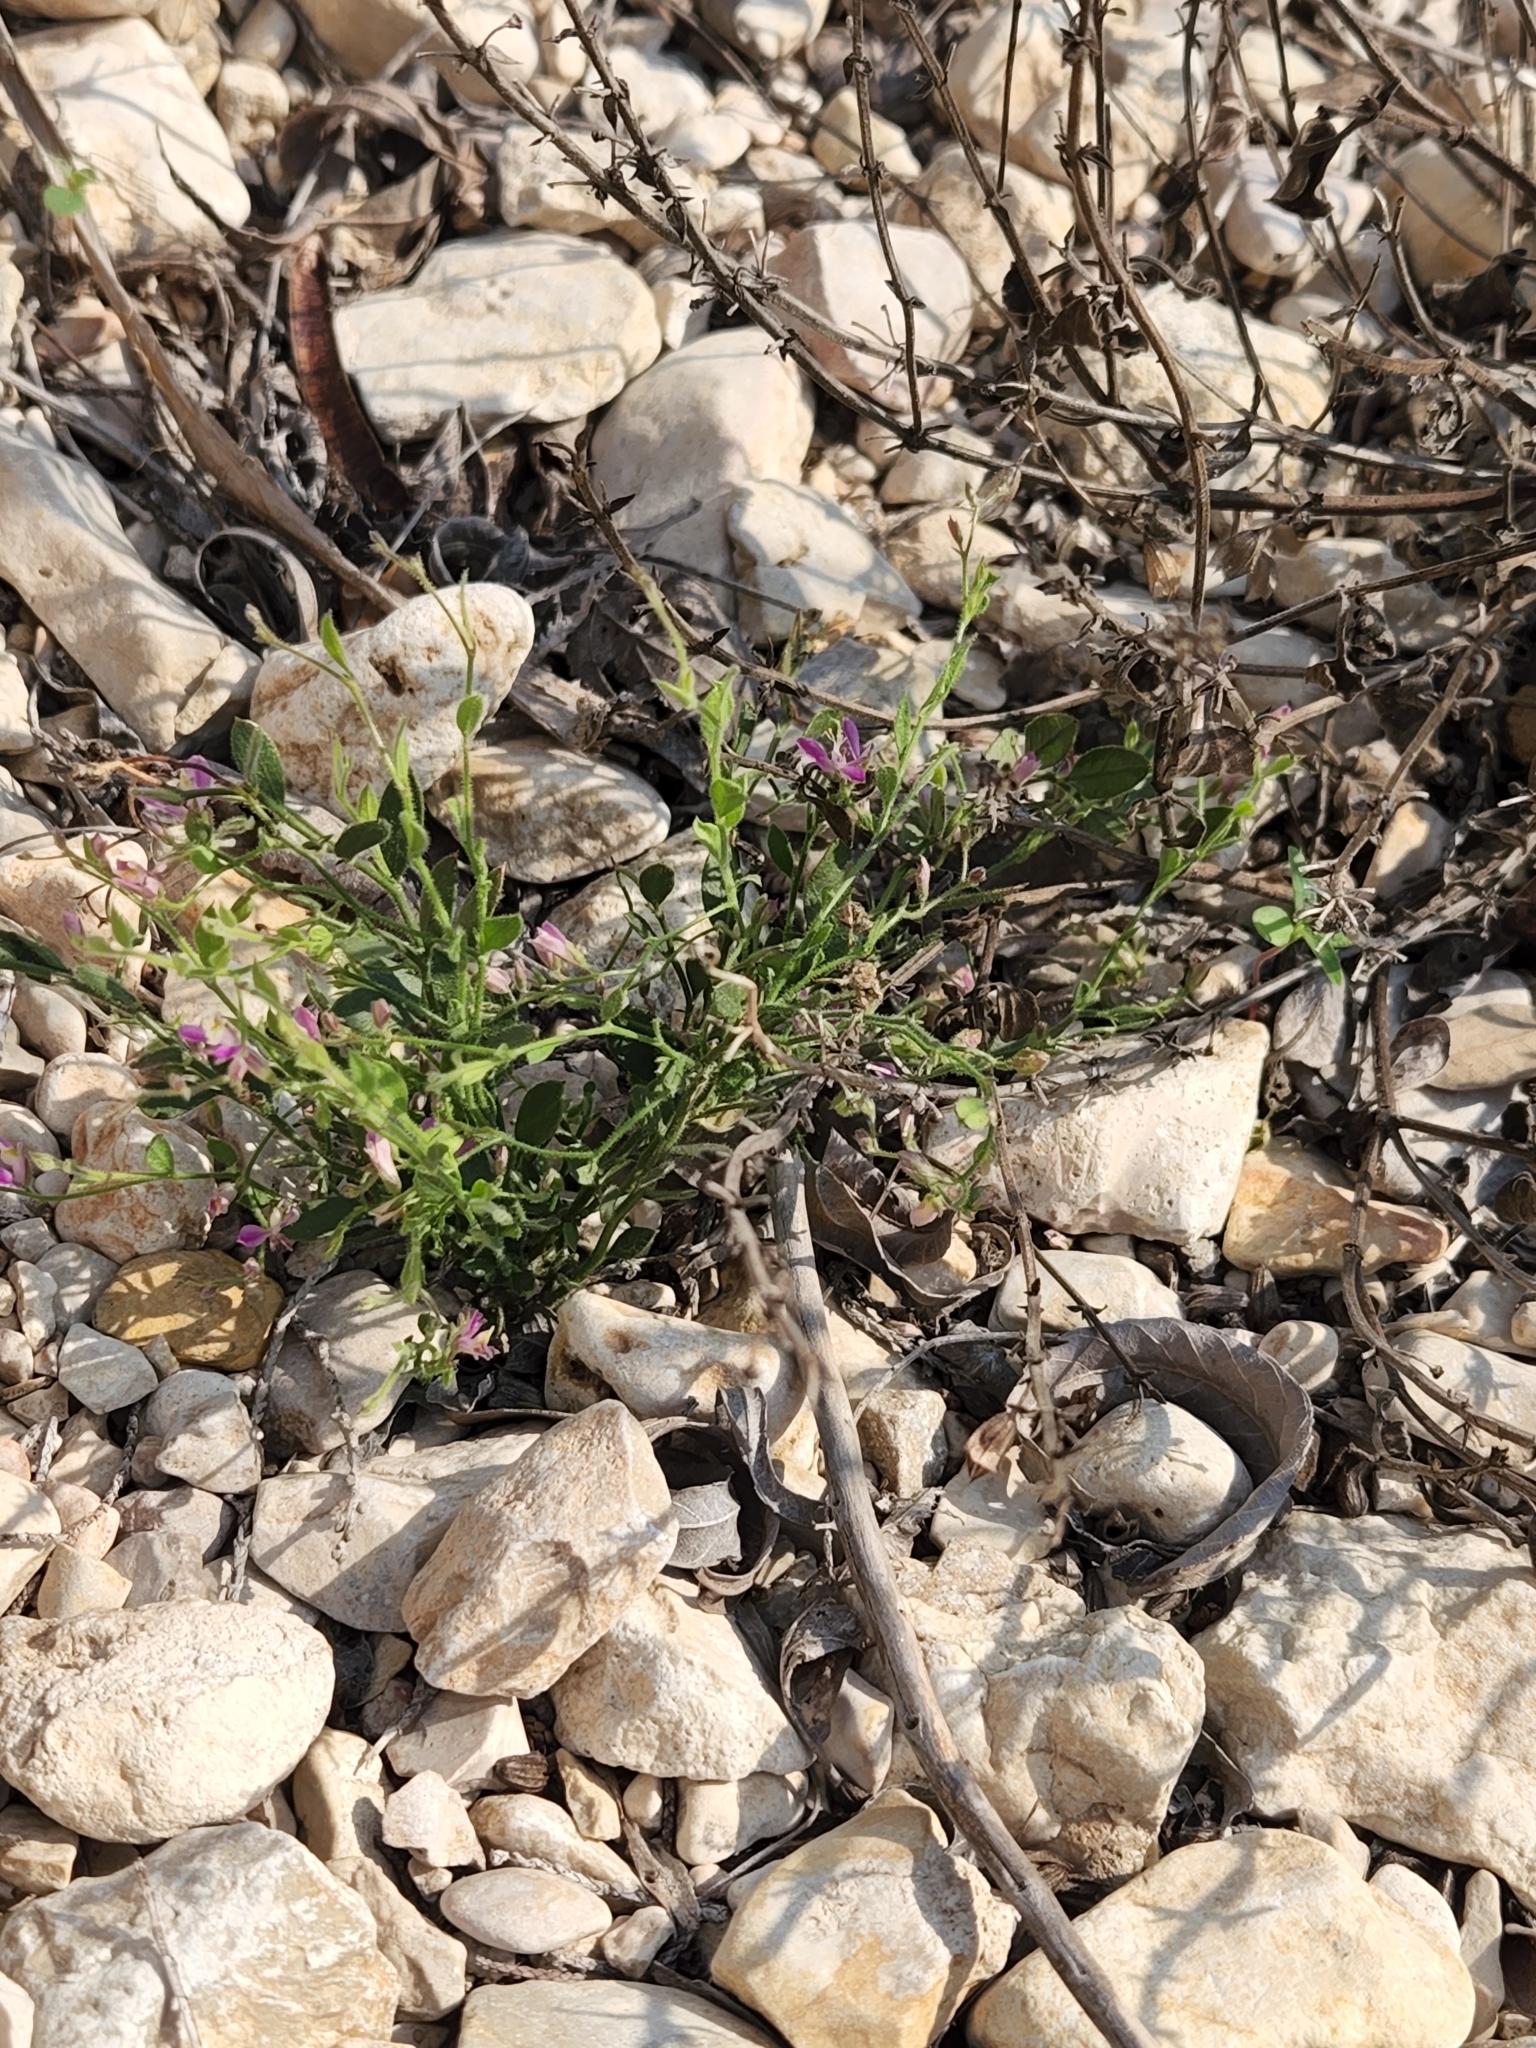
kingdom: Plantae
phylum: Tracheophyta
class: Magnoliopsida
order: Fabales
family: Polygalaceae
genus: Rhinotropis
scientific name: Rhinotropis lindheimeri
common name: Shrubby milkwort
